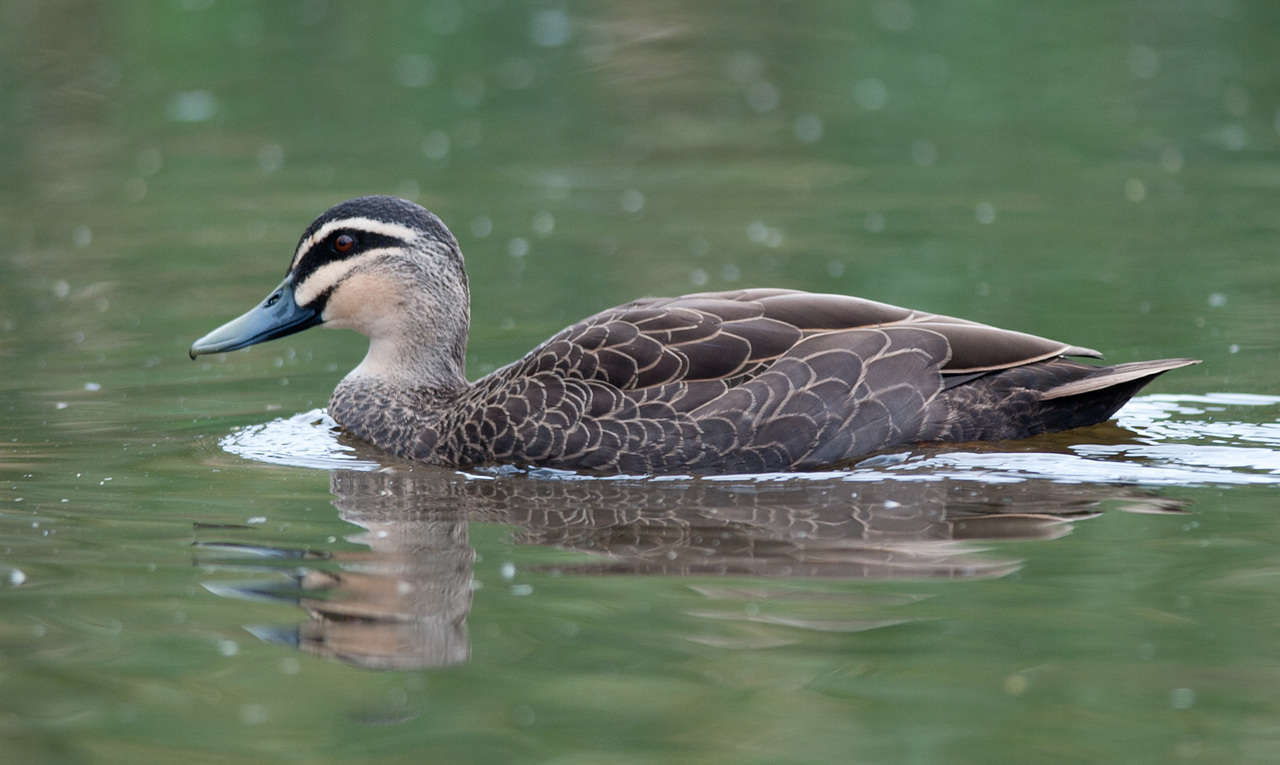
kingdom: Animalia
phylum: Chordata
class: Aves
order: Anseriformes
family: Anatidae
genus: Anas
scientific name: Anas superciliosa
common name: Pacific black duck
